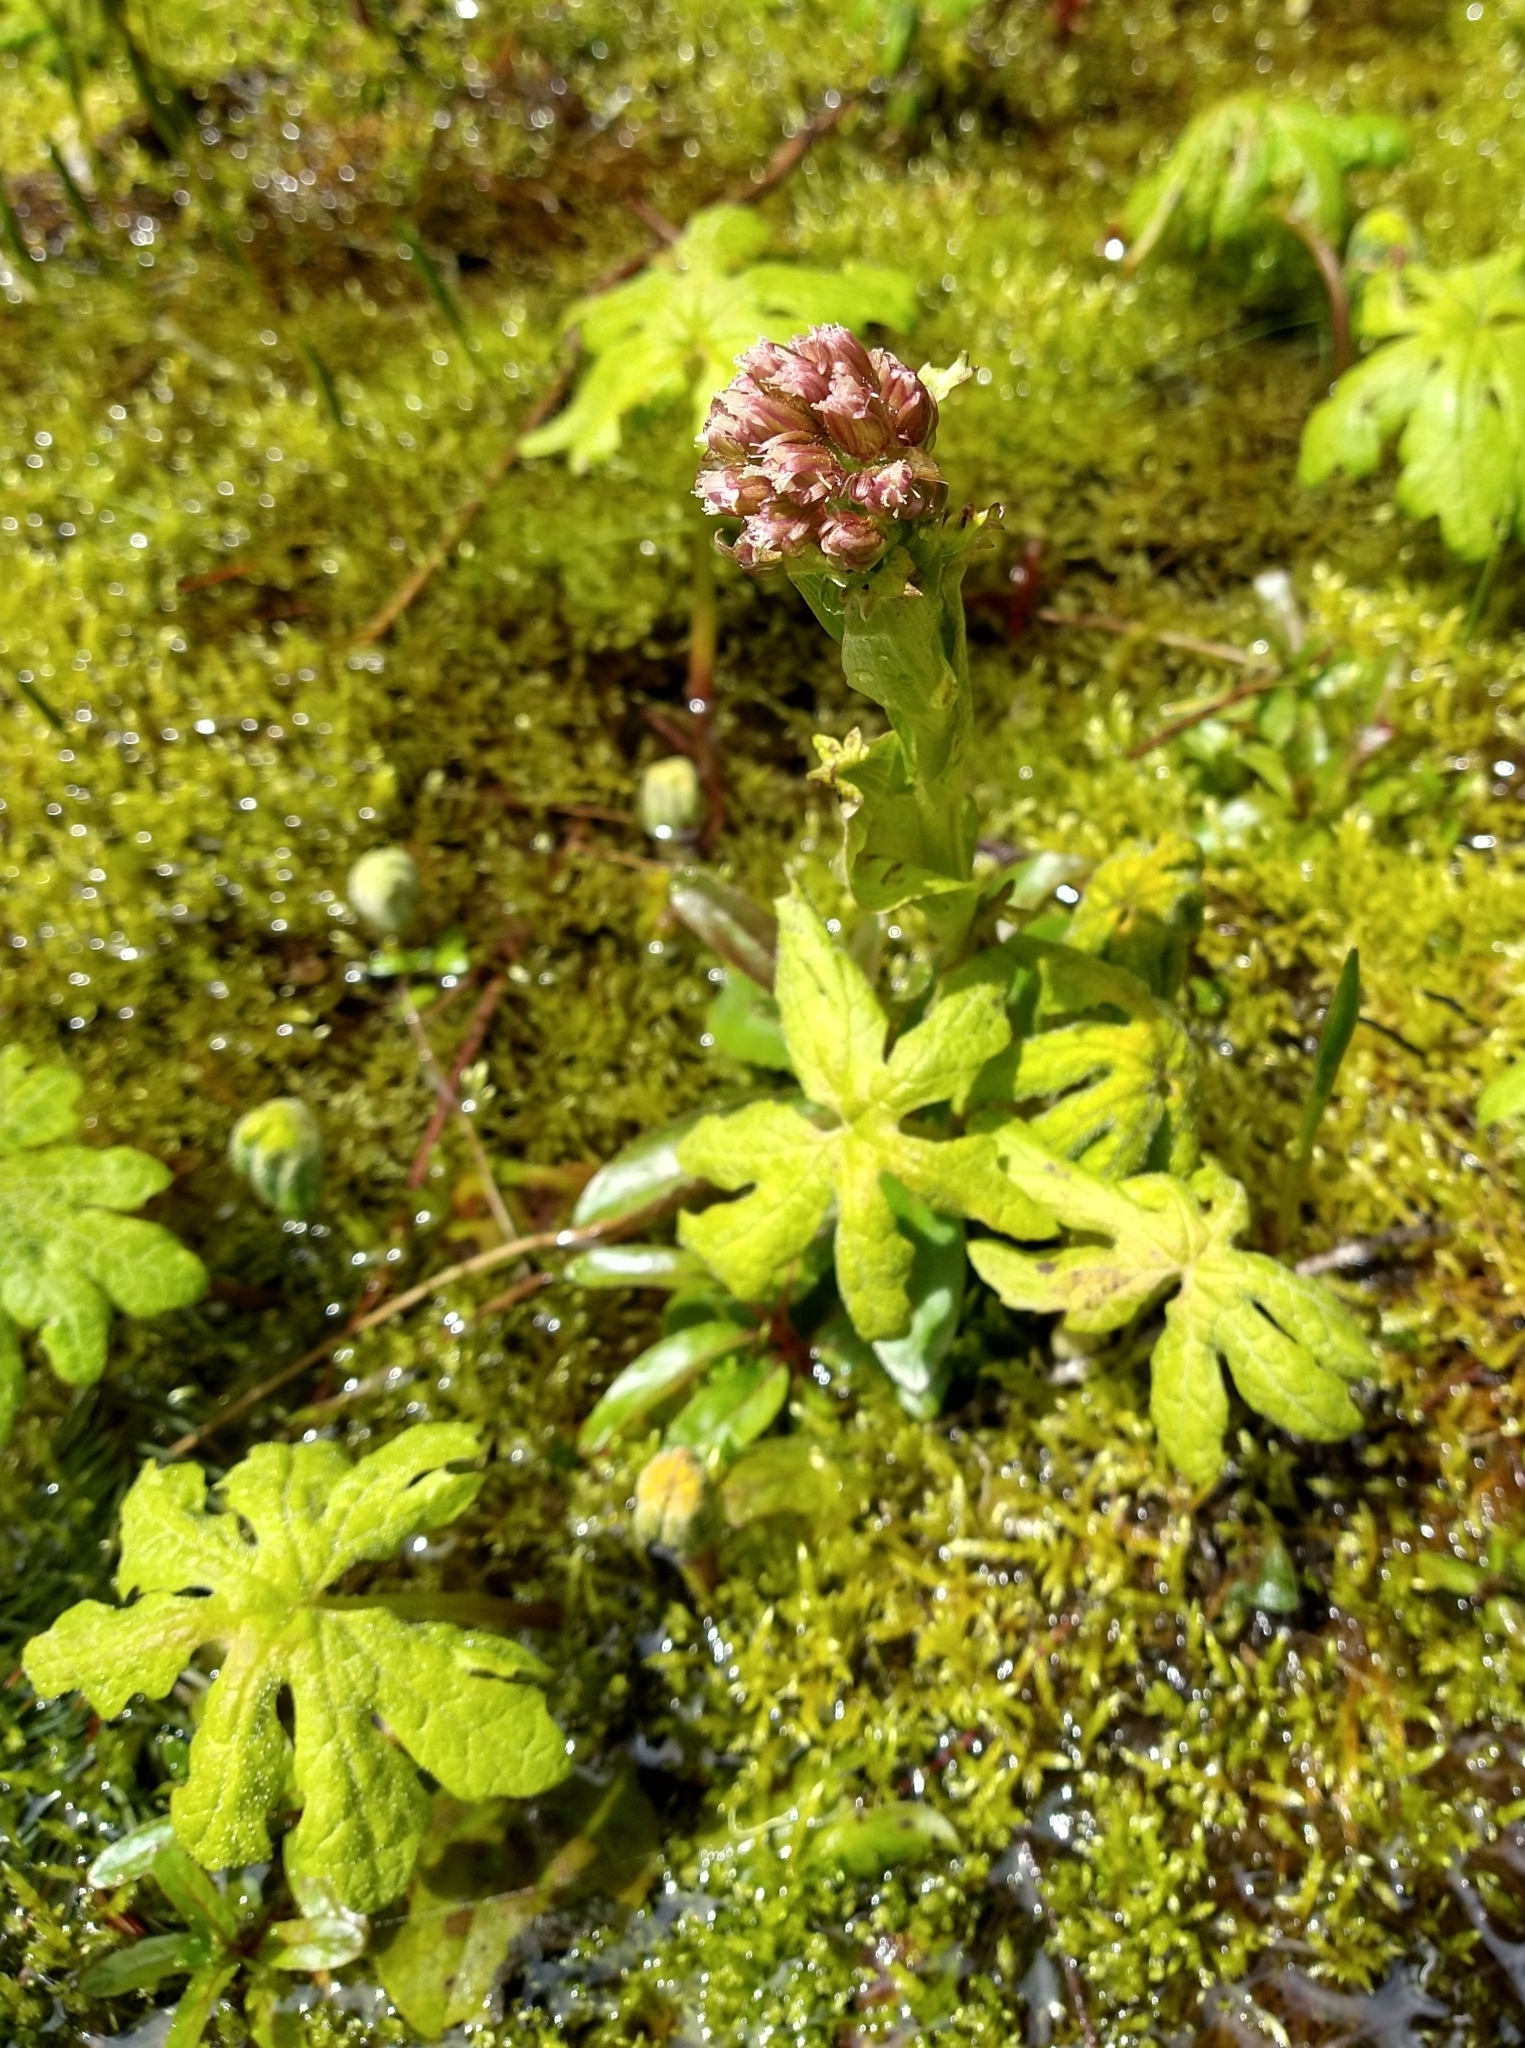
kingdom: Plantae
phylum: Tracheophyta
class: Magnoliopsida
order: Asterales
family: Asteraceae
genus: Petasites
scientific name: Petasites frigidus
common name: Arctic butterbur
